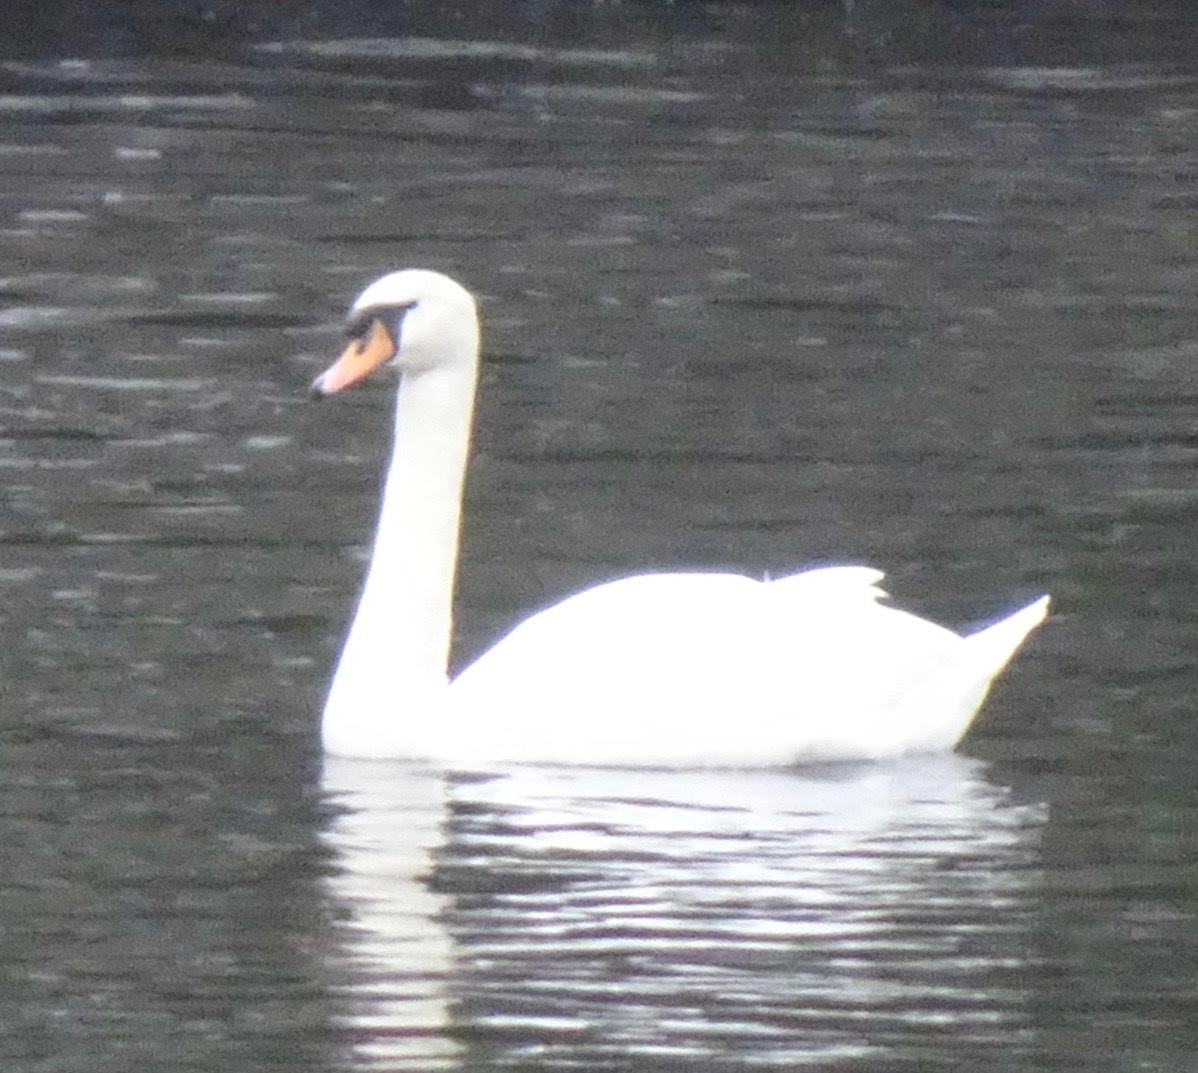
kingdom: Animalia
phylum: Chordata
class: Aves
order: Anseriformes
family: Anatidae
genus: Cygnus
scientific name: Cygnus olor
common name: Mute swan
